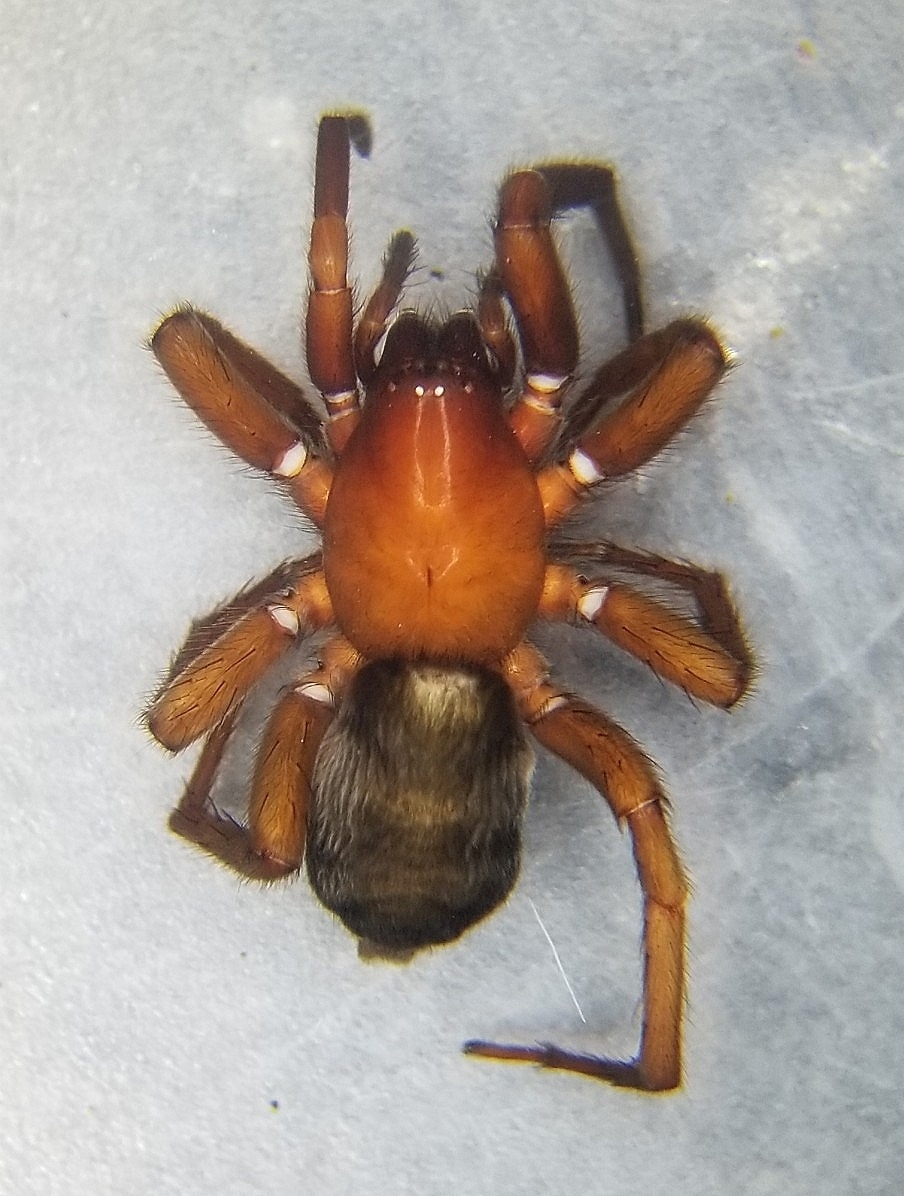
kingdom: Animalia
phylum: Arthropoda
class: Arachnida
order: Araneae
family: Gnaphosidae
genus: Scotophaeus
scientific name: Scotophaeus blackwalli
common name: Mouse spider
